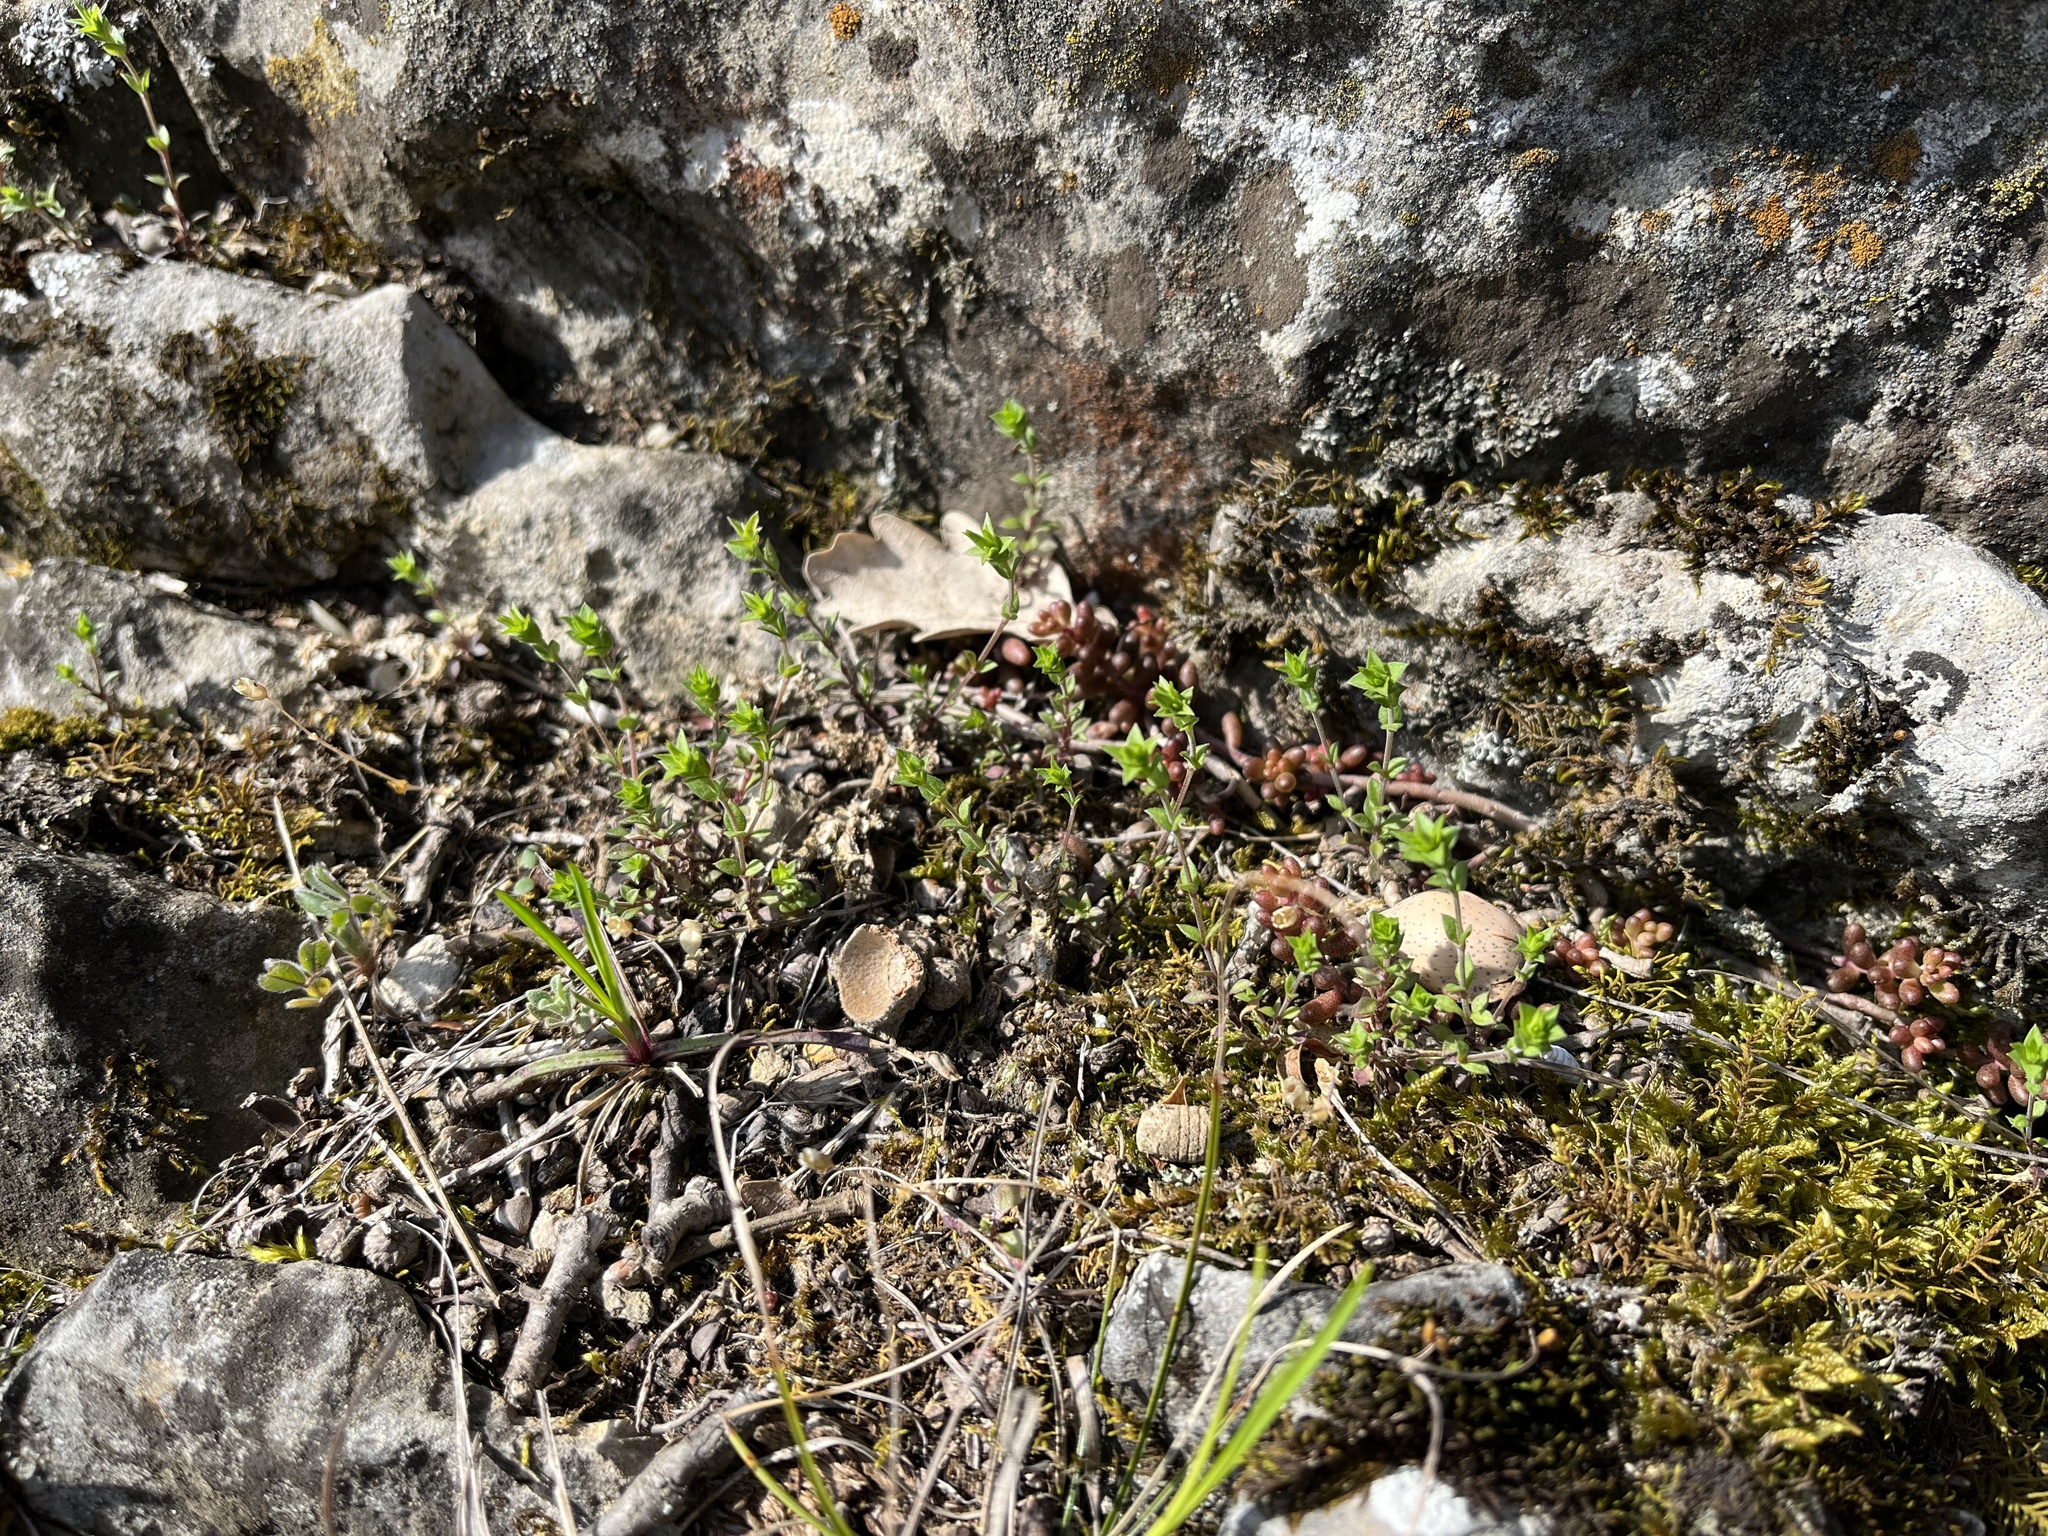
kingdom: Plantae
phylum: Tracheophyta
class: Magnoliopsida
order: Caryophyllales
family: Caryophyllaceae
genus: Arenaria
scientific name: Arenaria serpyllifolia
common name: Thyme-leaved sandwort
